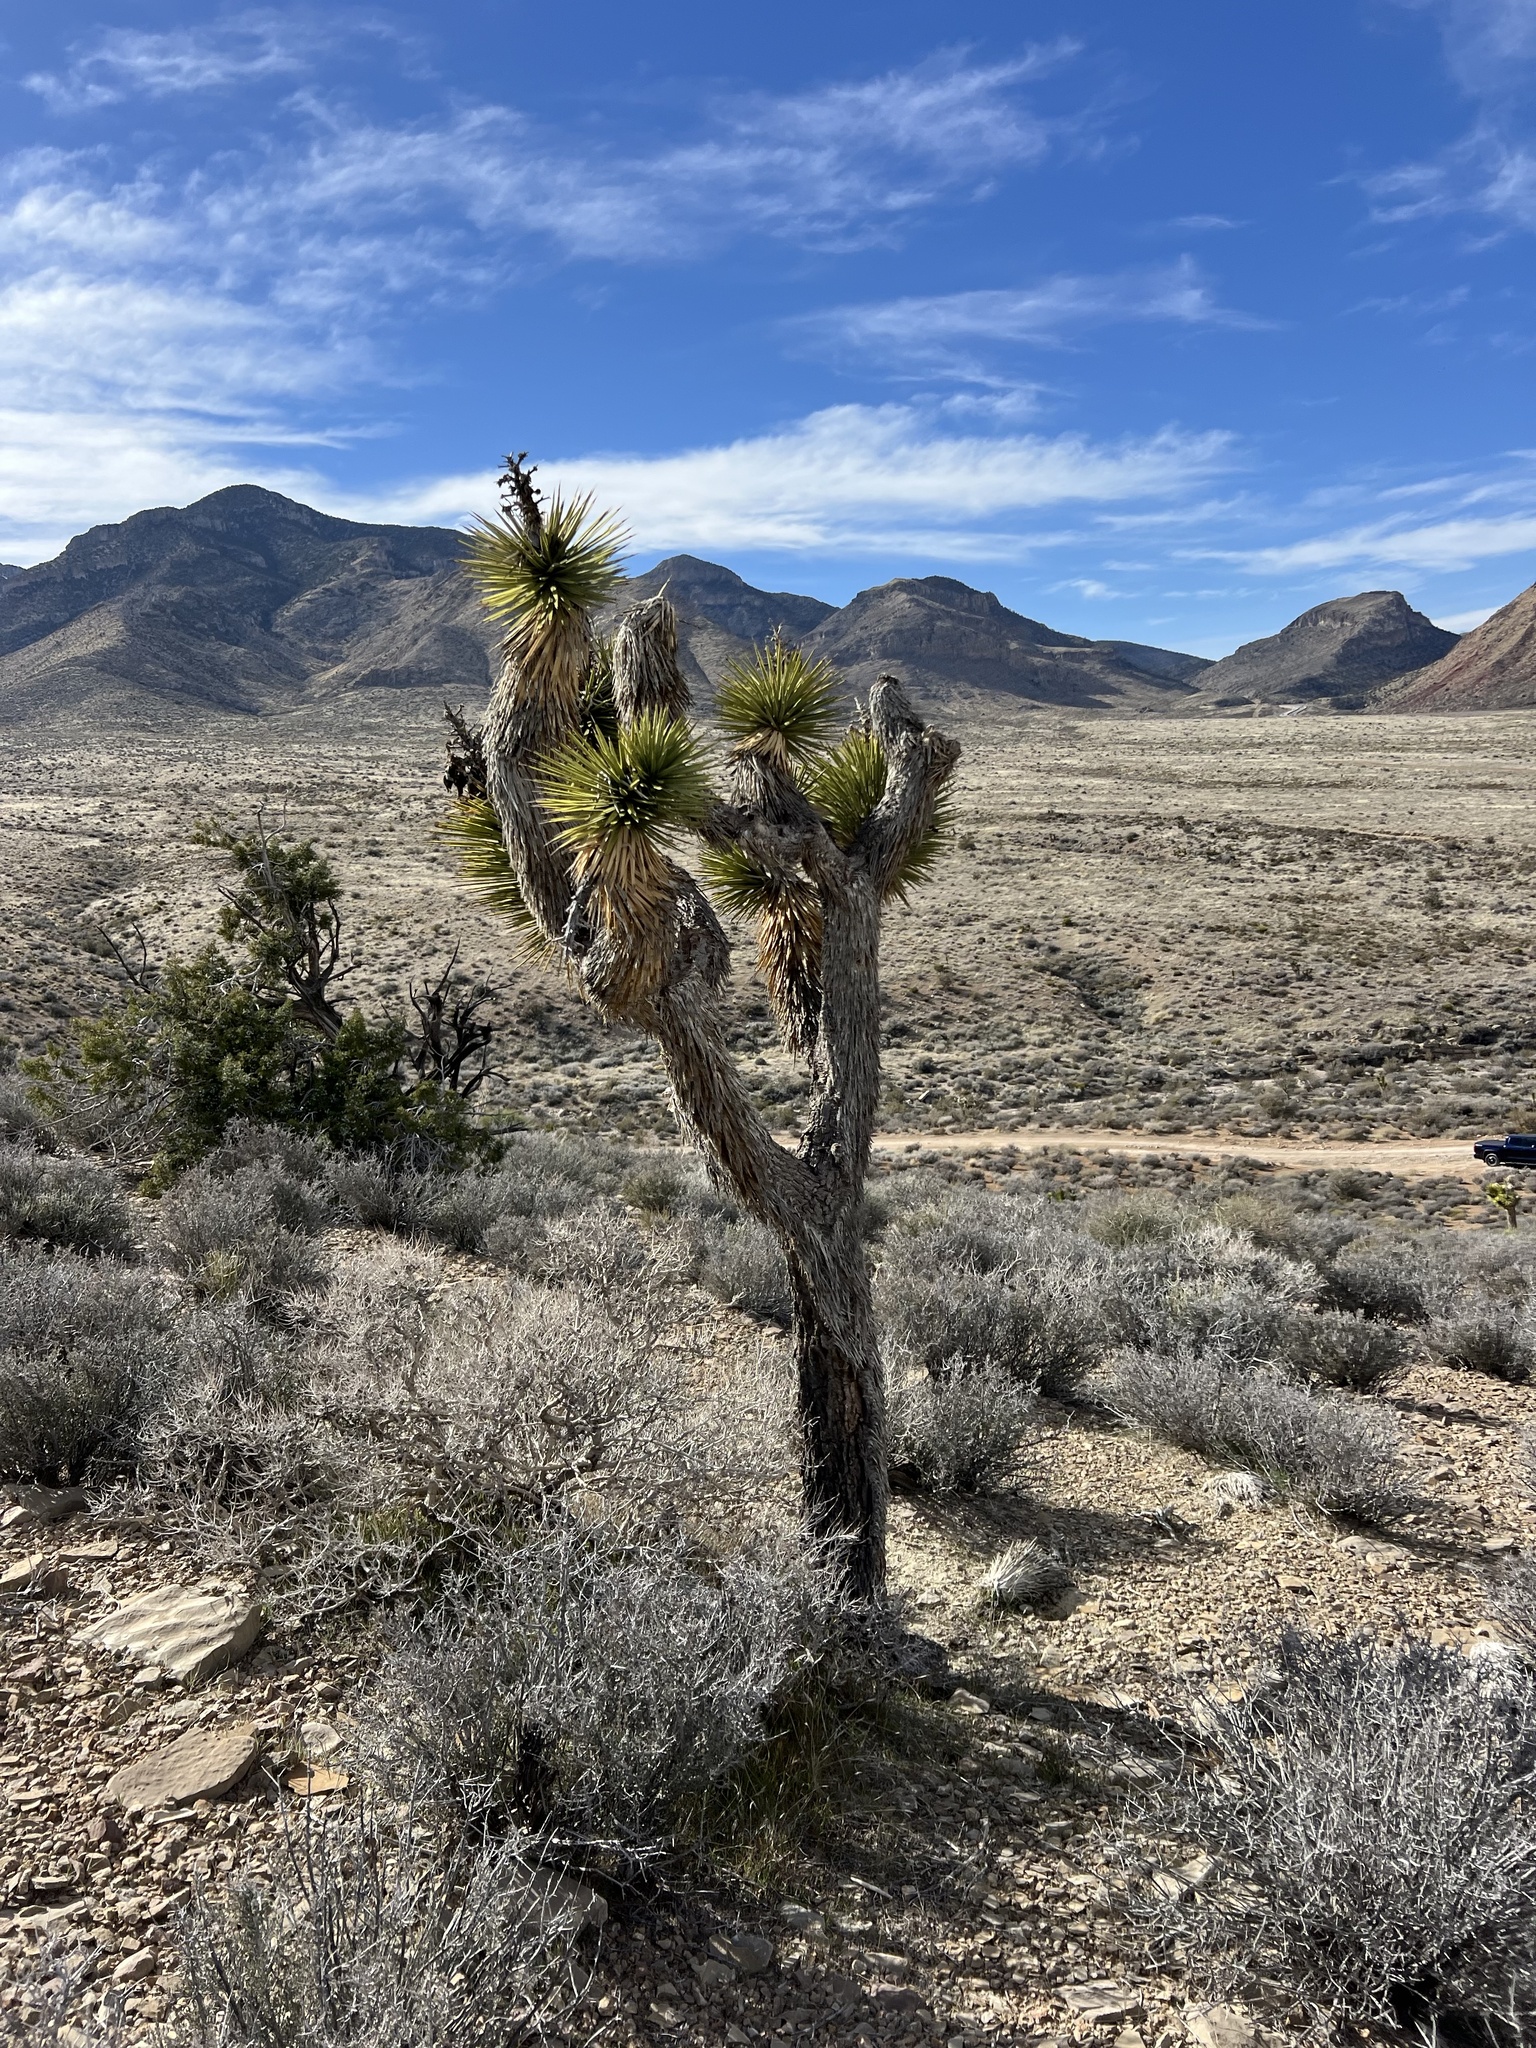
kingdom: Plantae
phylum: Tracheophyta
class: Liliopsida
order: Asparagales
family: Asparagaceae
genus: Yucca
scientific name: Yucca brevifolia
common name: Joshua tree
